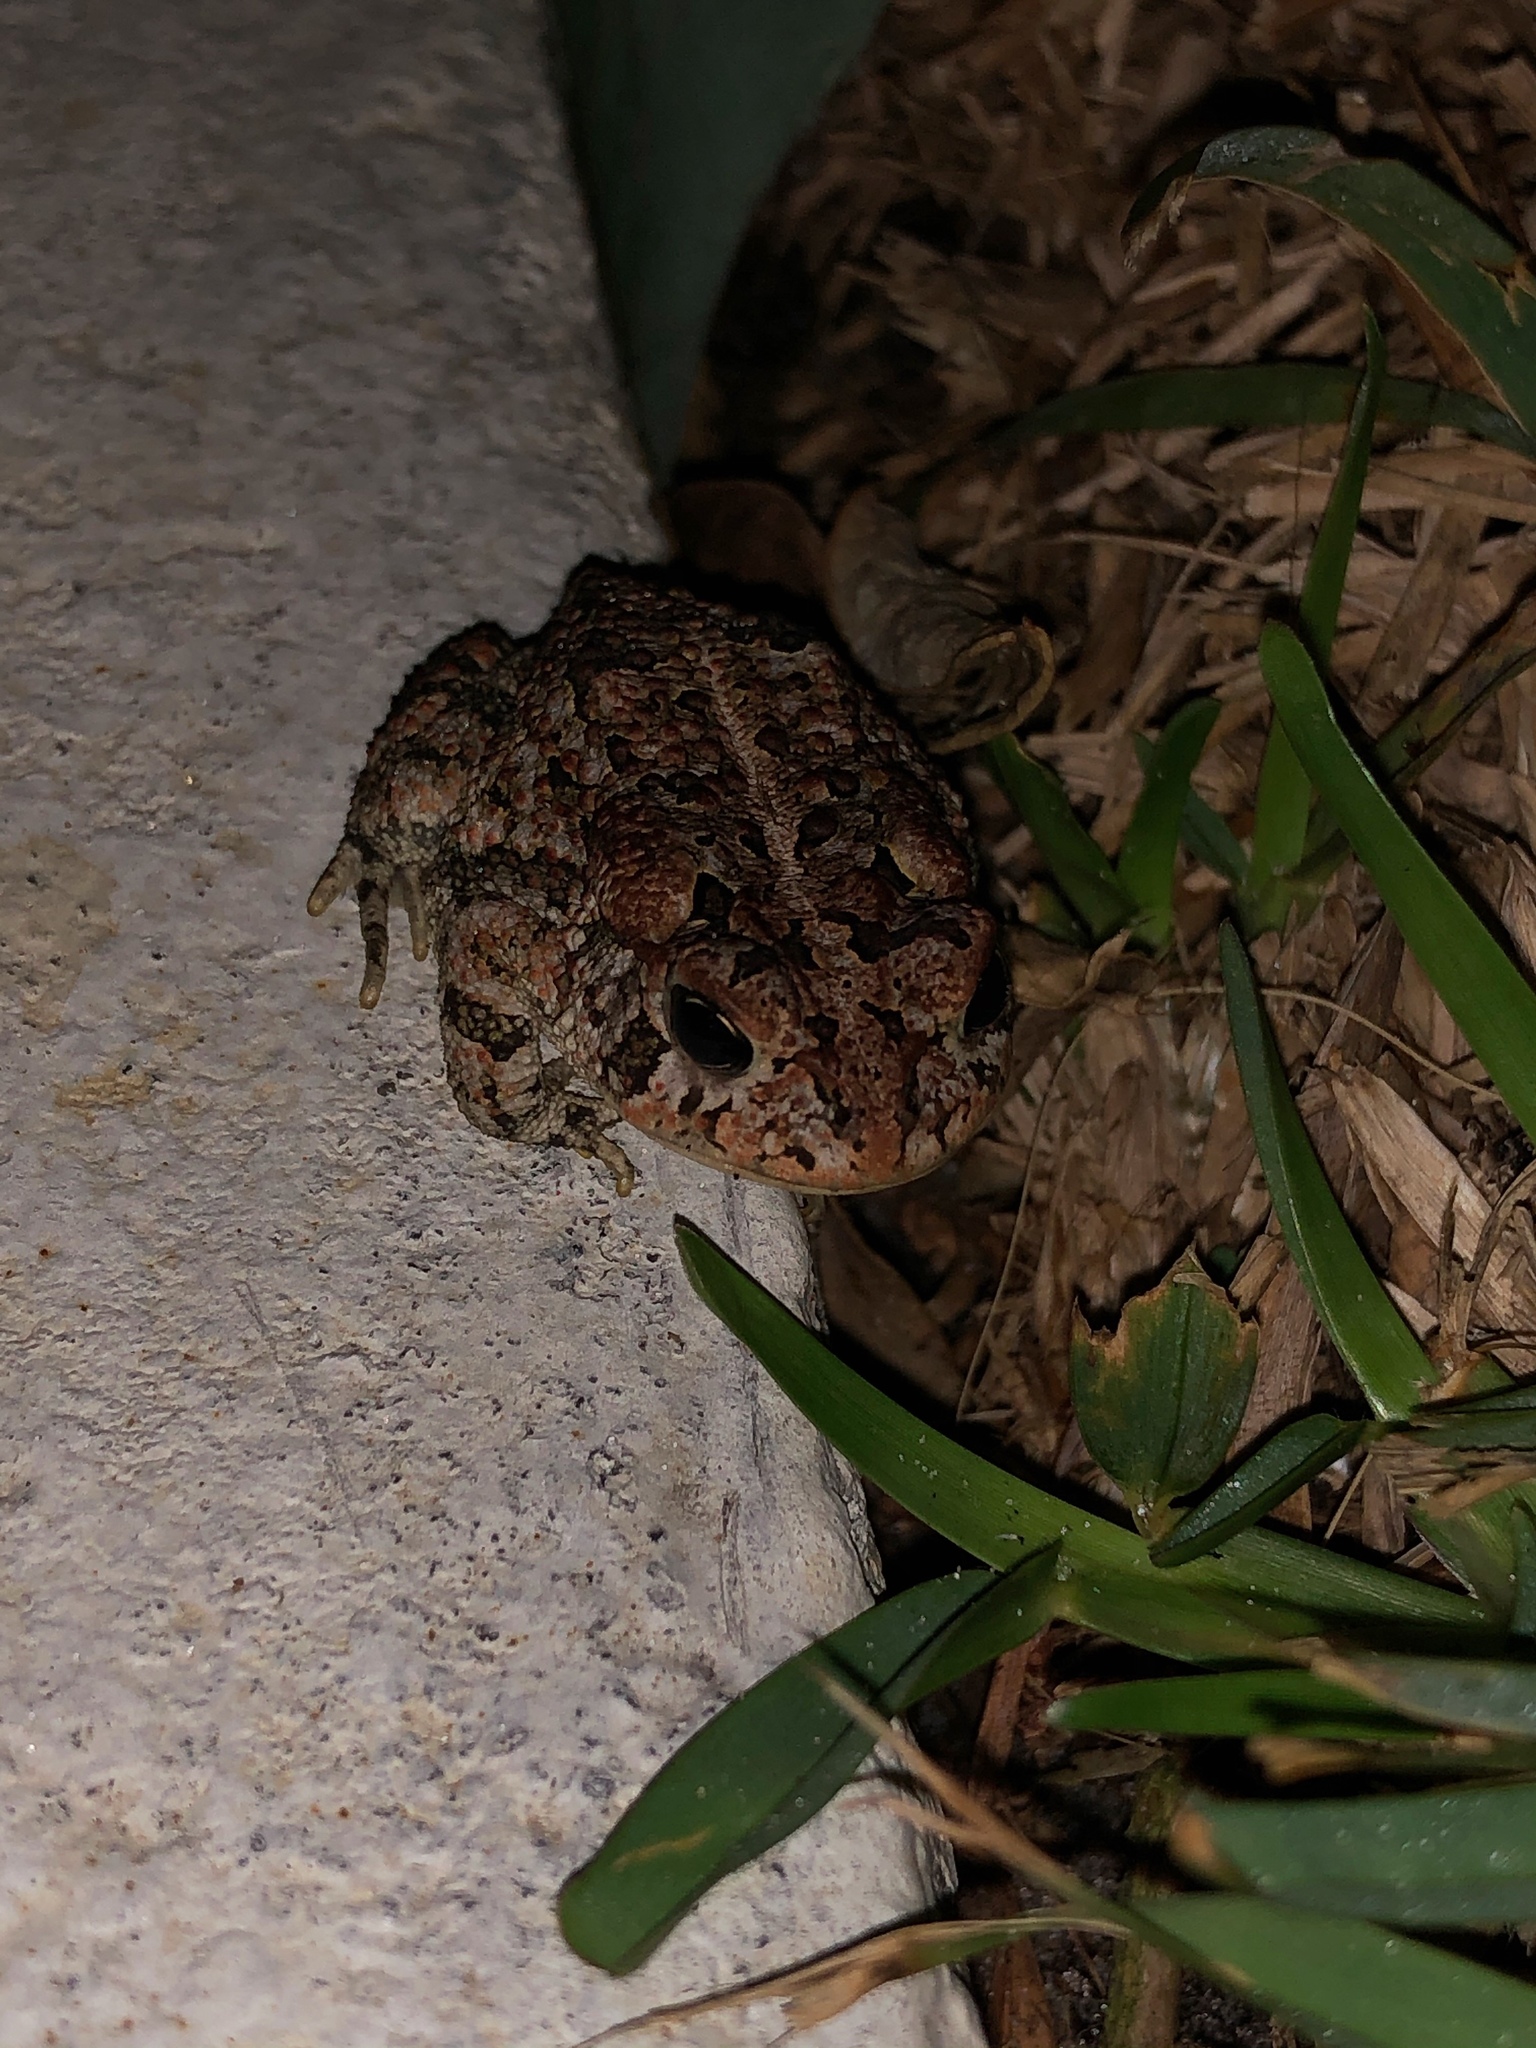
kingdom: Animalia
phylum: Chordata
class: Amphibia
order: Anura
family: Bufonidae
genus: Anaxyrus
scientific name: Anaxyrus terrestris
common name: Southern toad
